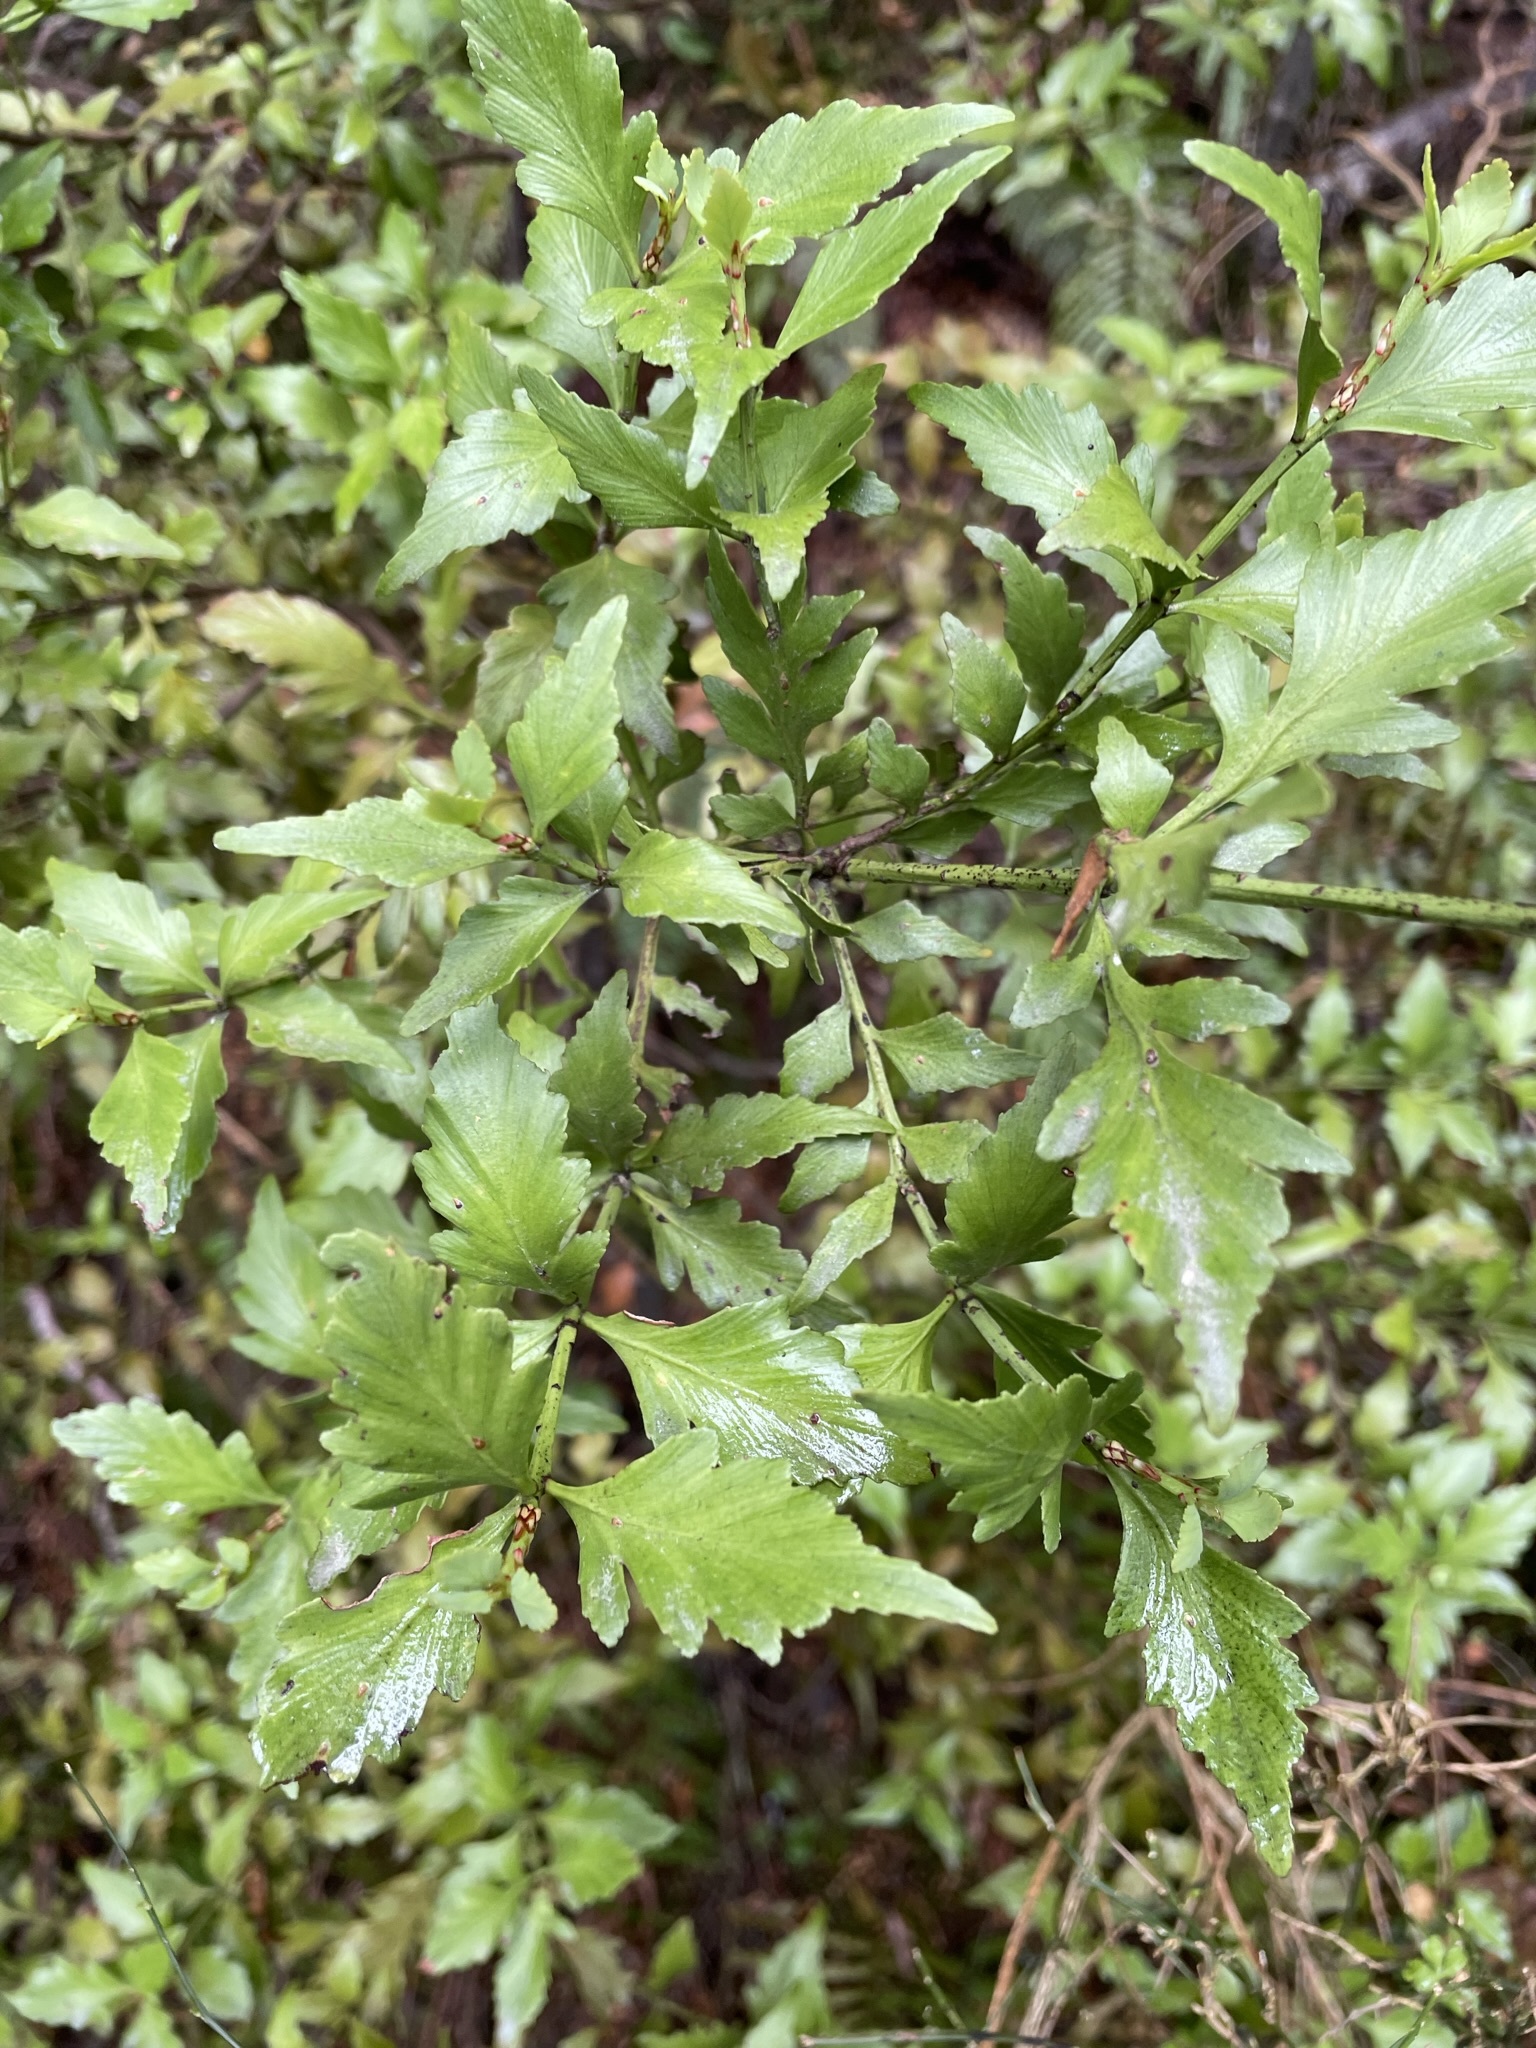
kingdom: Plantae
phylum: Tracheophyta
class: Pinopsida
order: Pinales
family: Phyllocladaceae
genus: Phyllocladus
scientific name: Phyllocladus trichomanoides
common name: Celery pine
